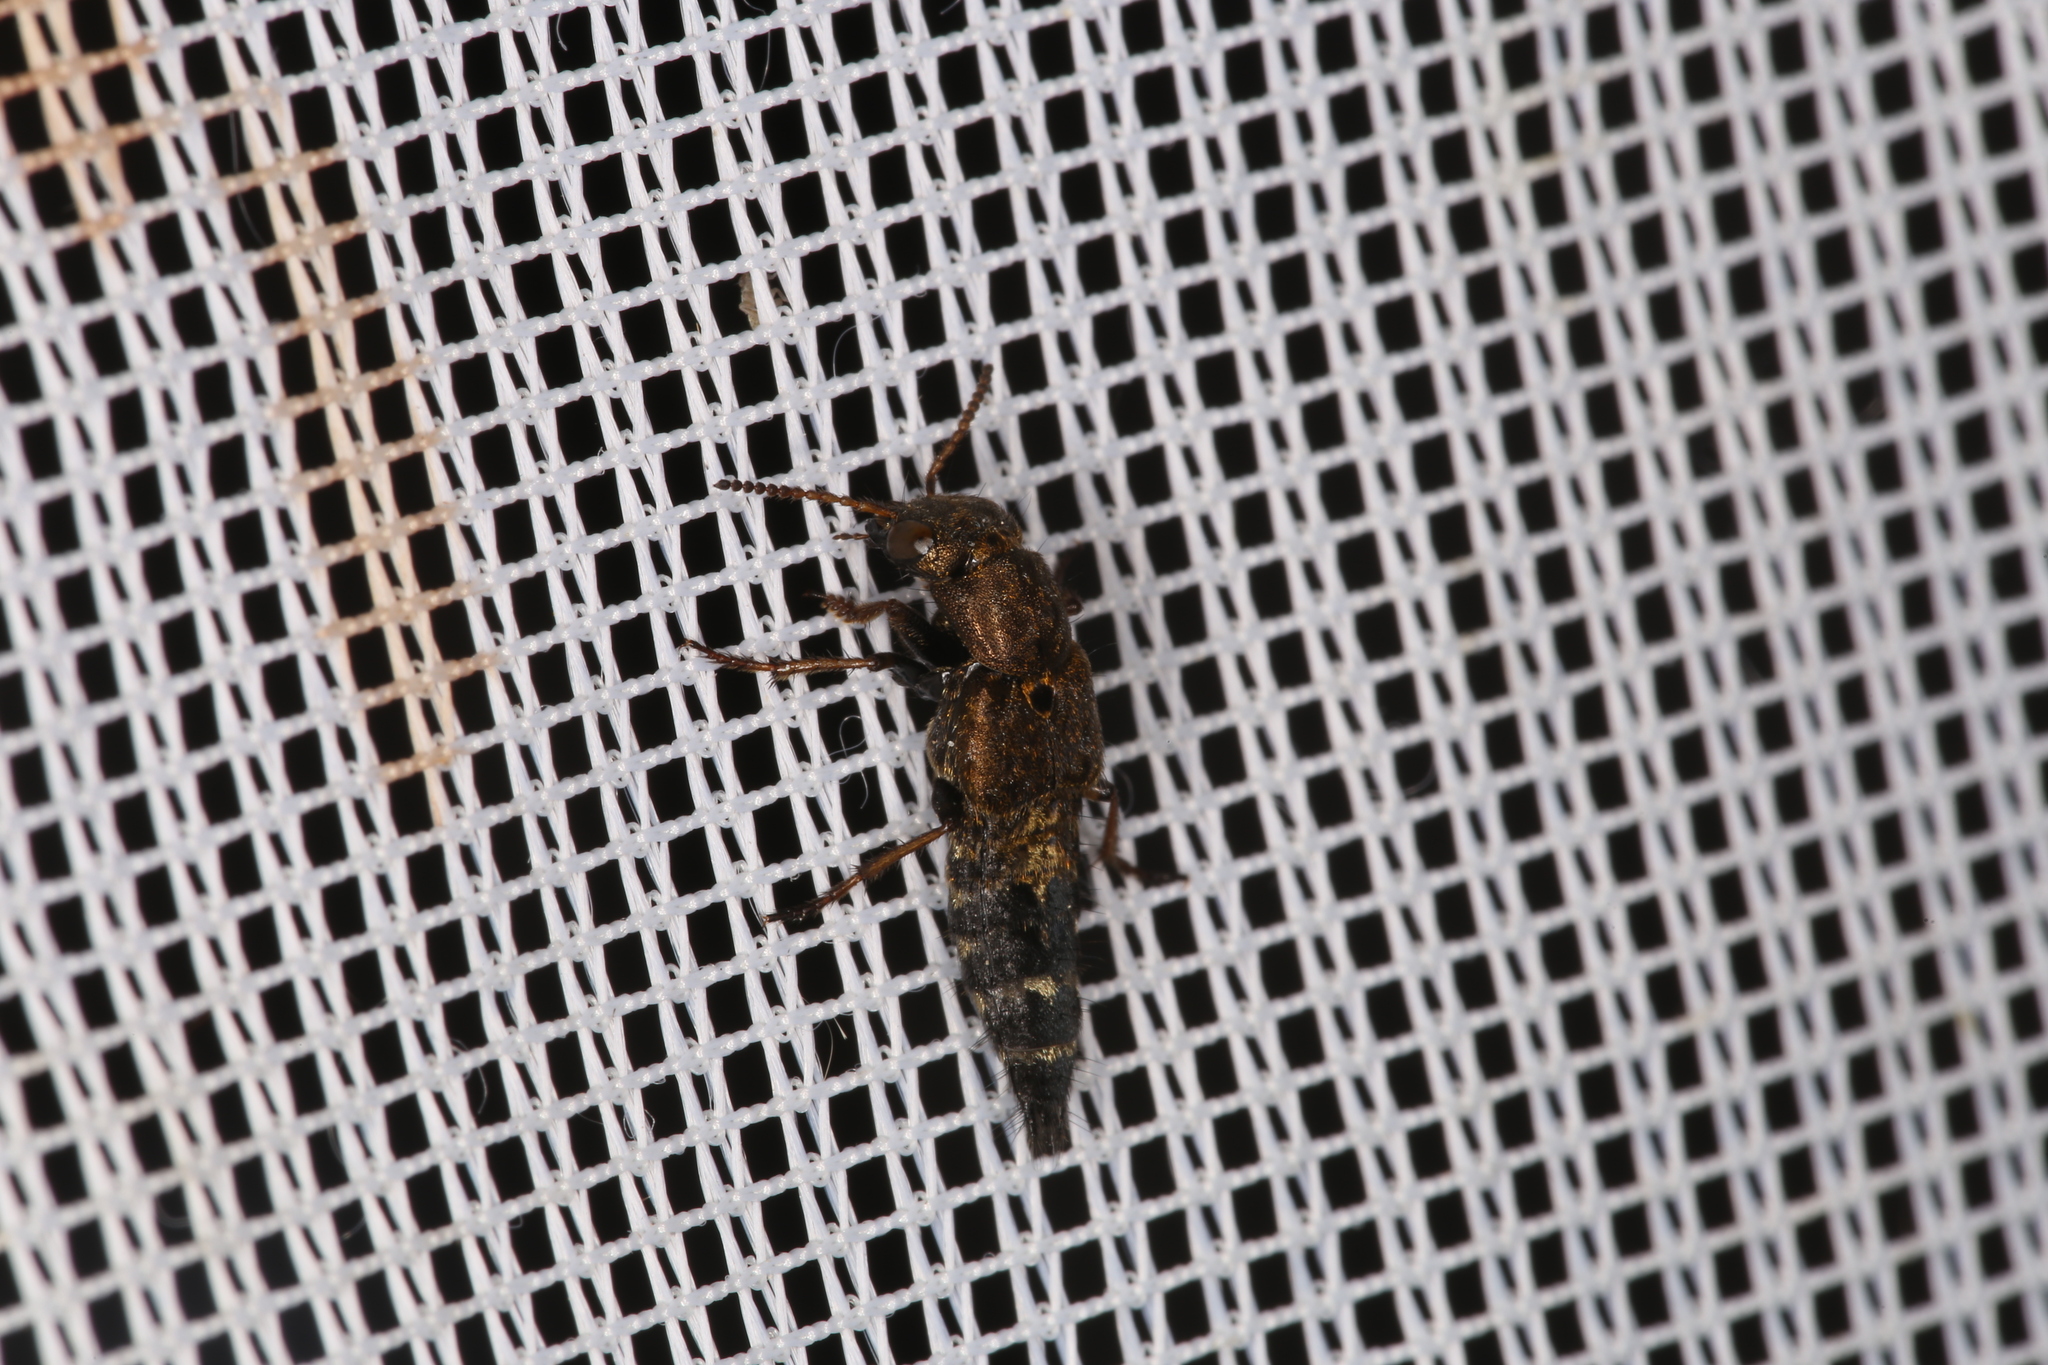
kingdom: Animalia
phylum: Arthropoda
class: Insecta
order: Coleoptera
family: Staphylinidae
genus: Ontholestes
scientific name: Ontholestes haroldi
